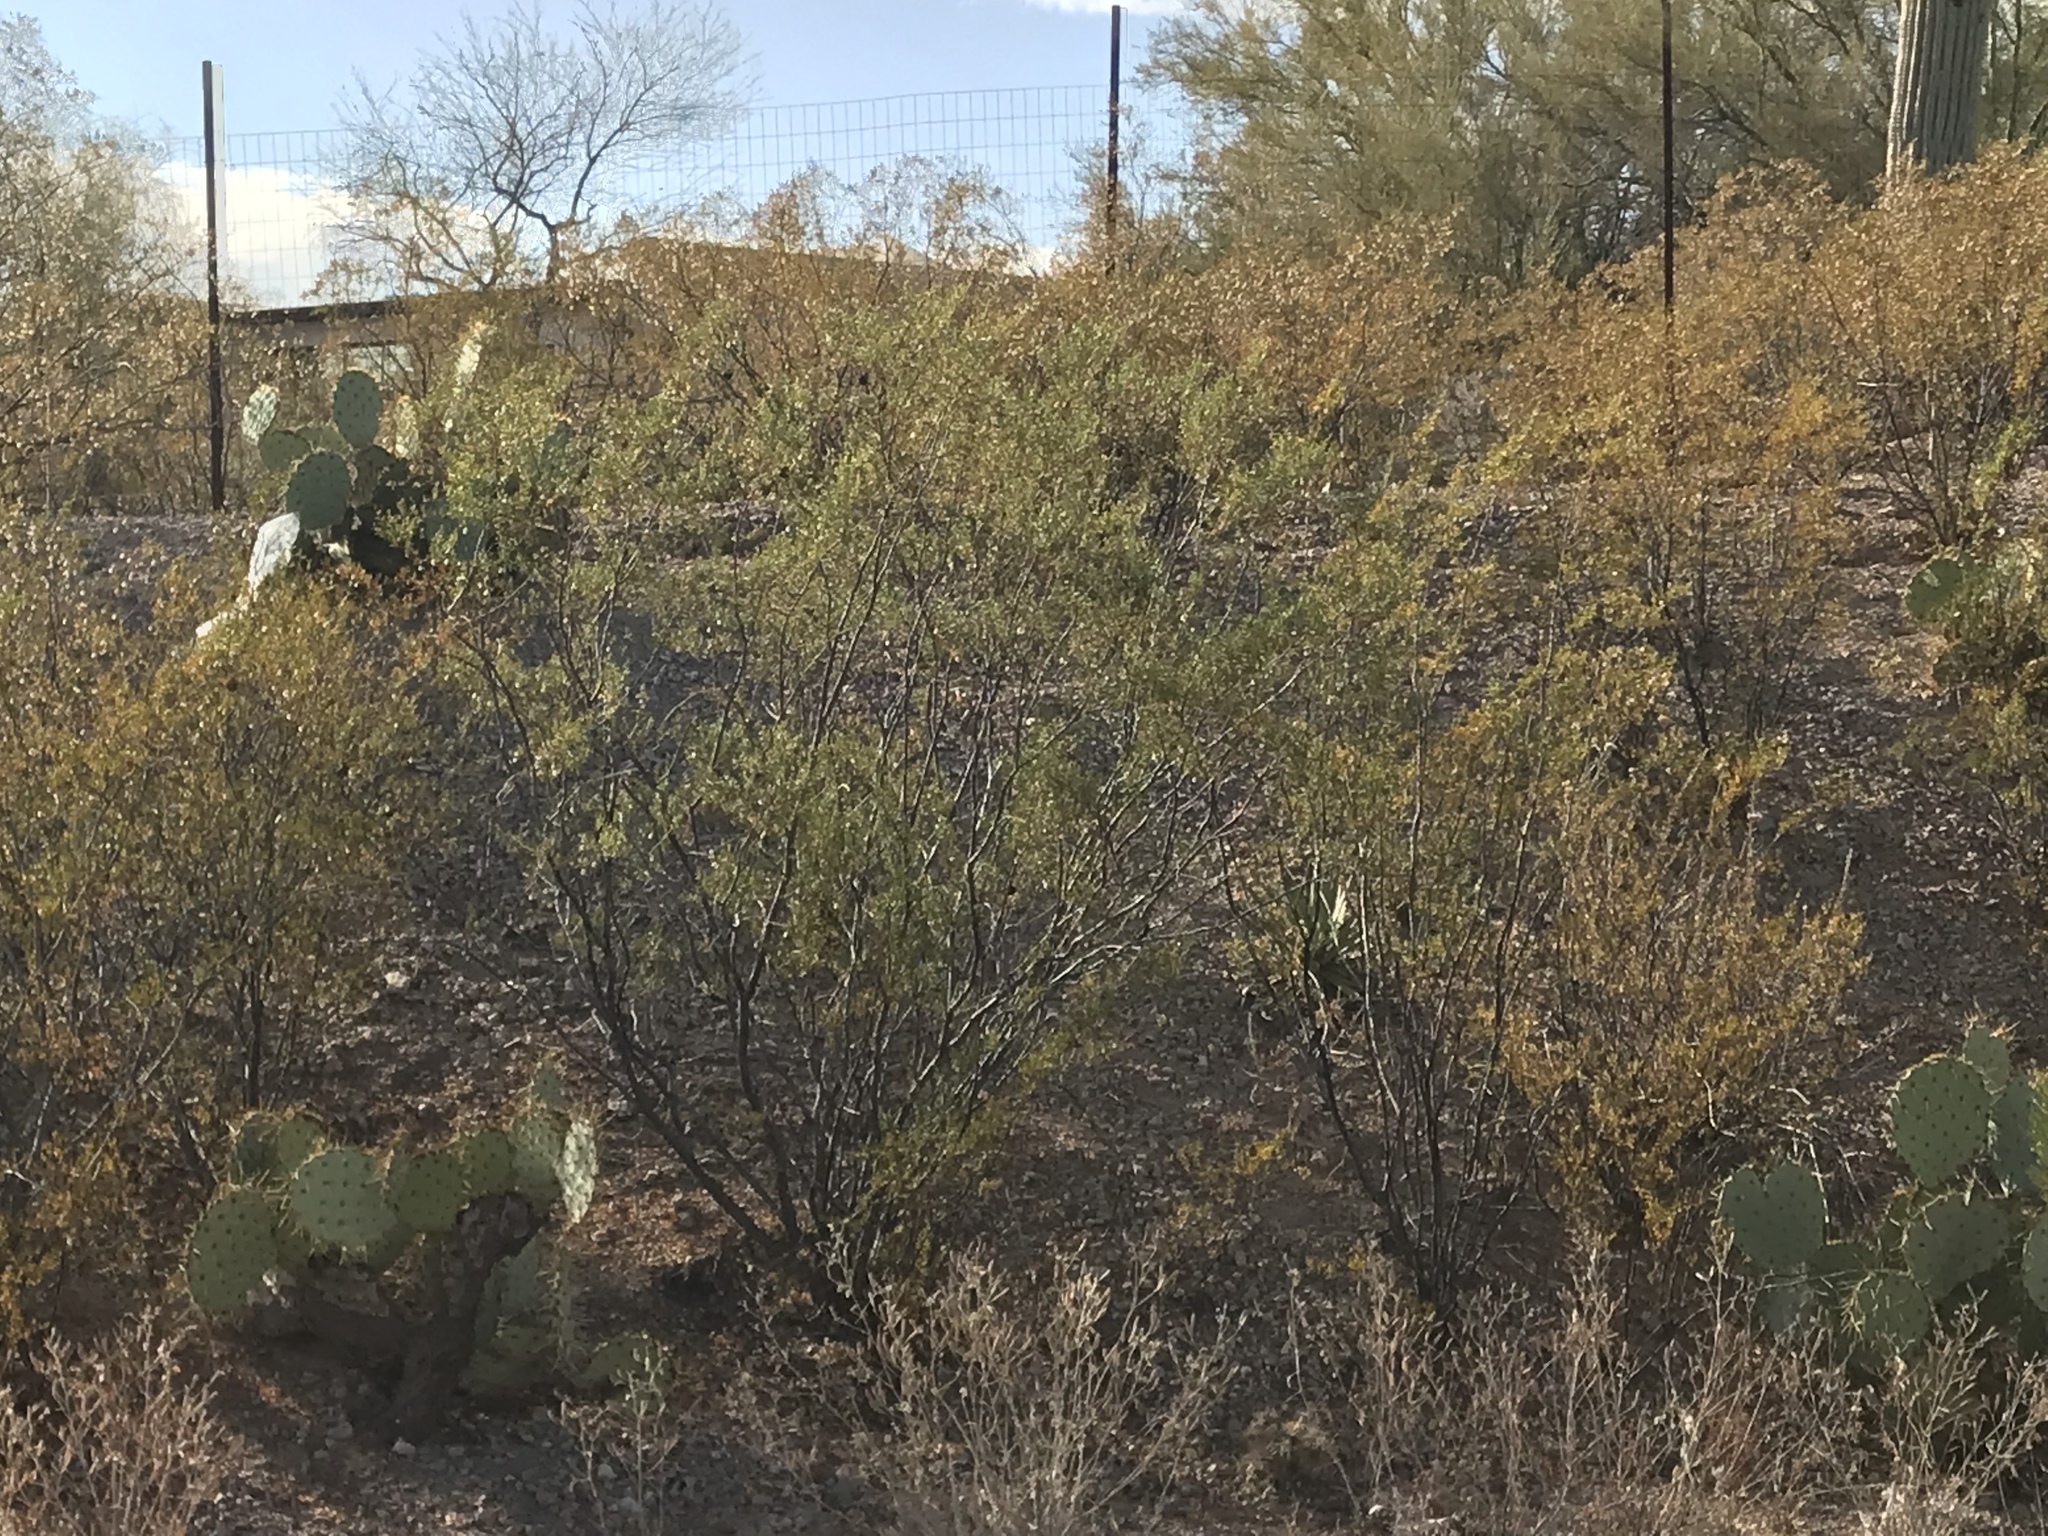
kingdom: Plantae
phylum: Tracheophyta
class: Magnoliopsida
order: Zygophyllales
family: Zygophyllaceae
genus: Larrea
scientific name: Larrea tridentata
